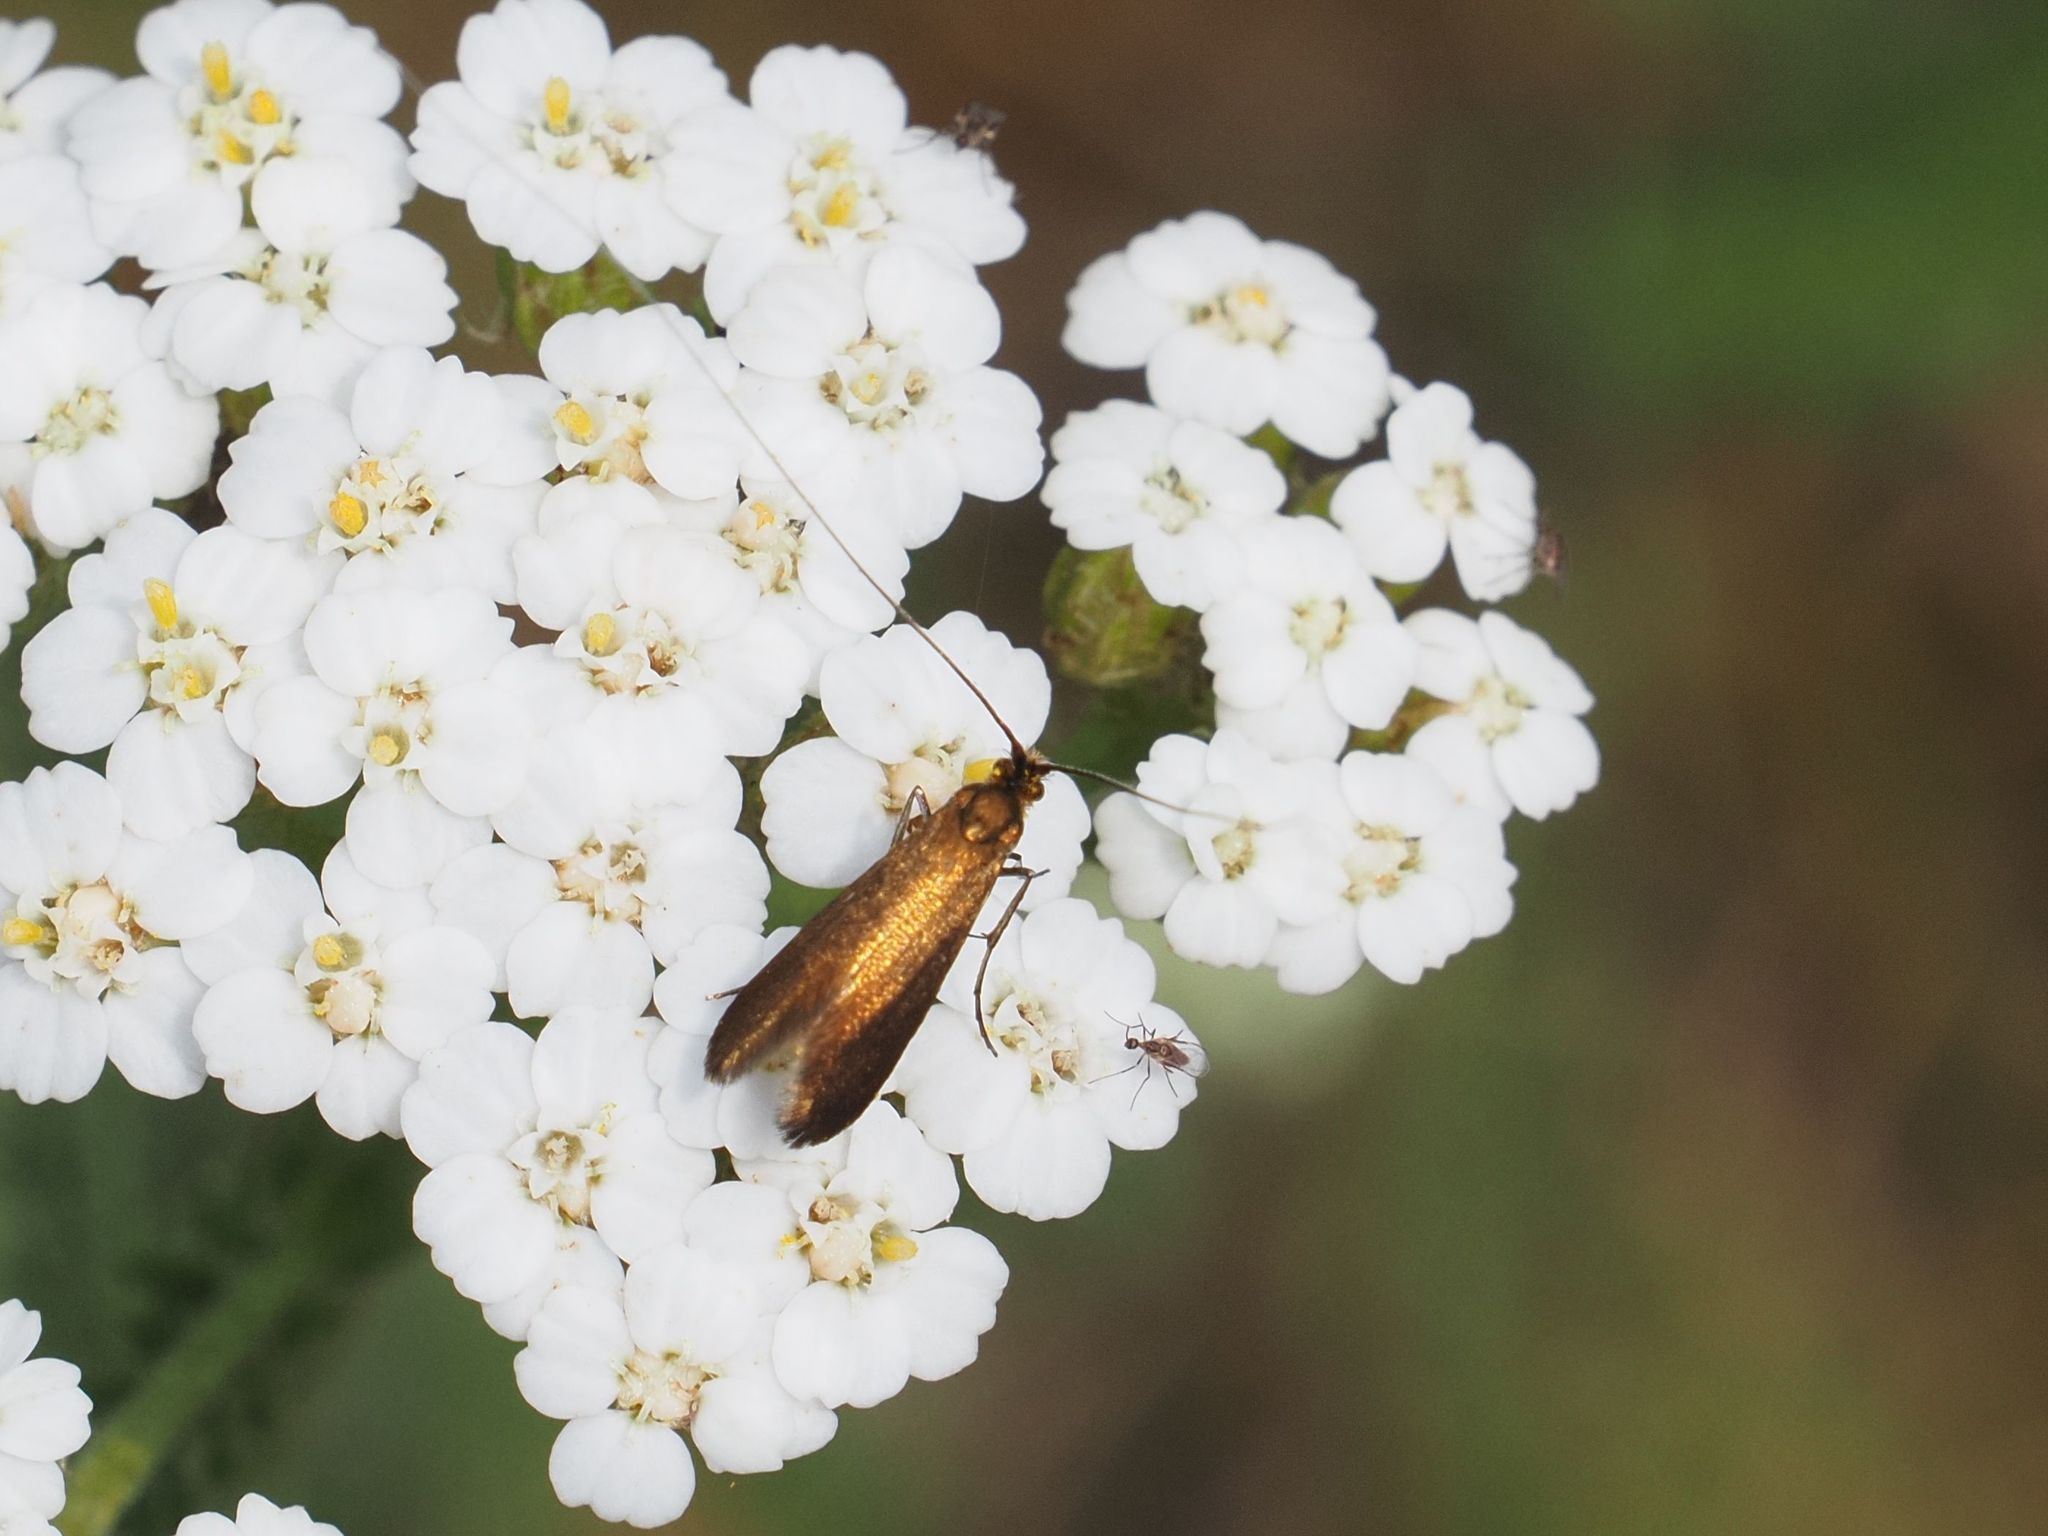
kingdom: Animalia
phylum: Arthropoda
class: Insecta
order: Lepidoptera
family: Adelidae
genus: Adela
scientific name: Adela violella
